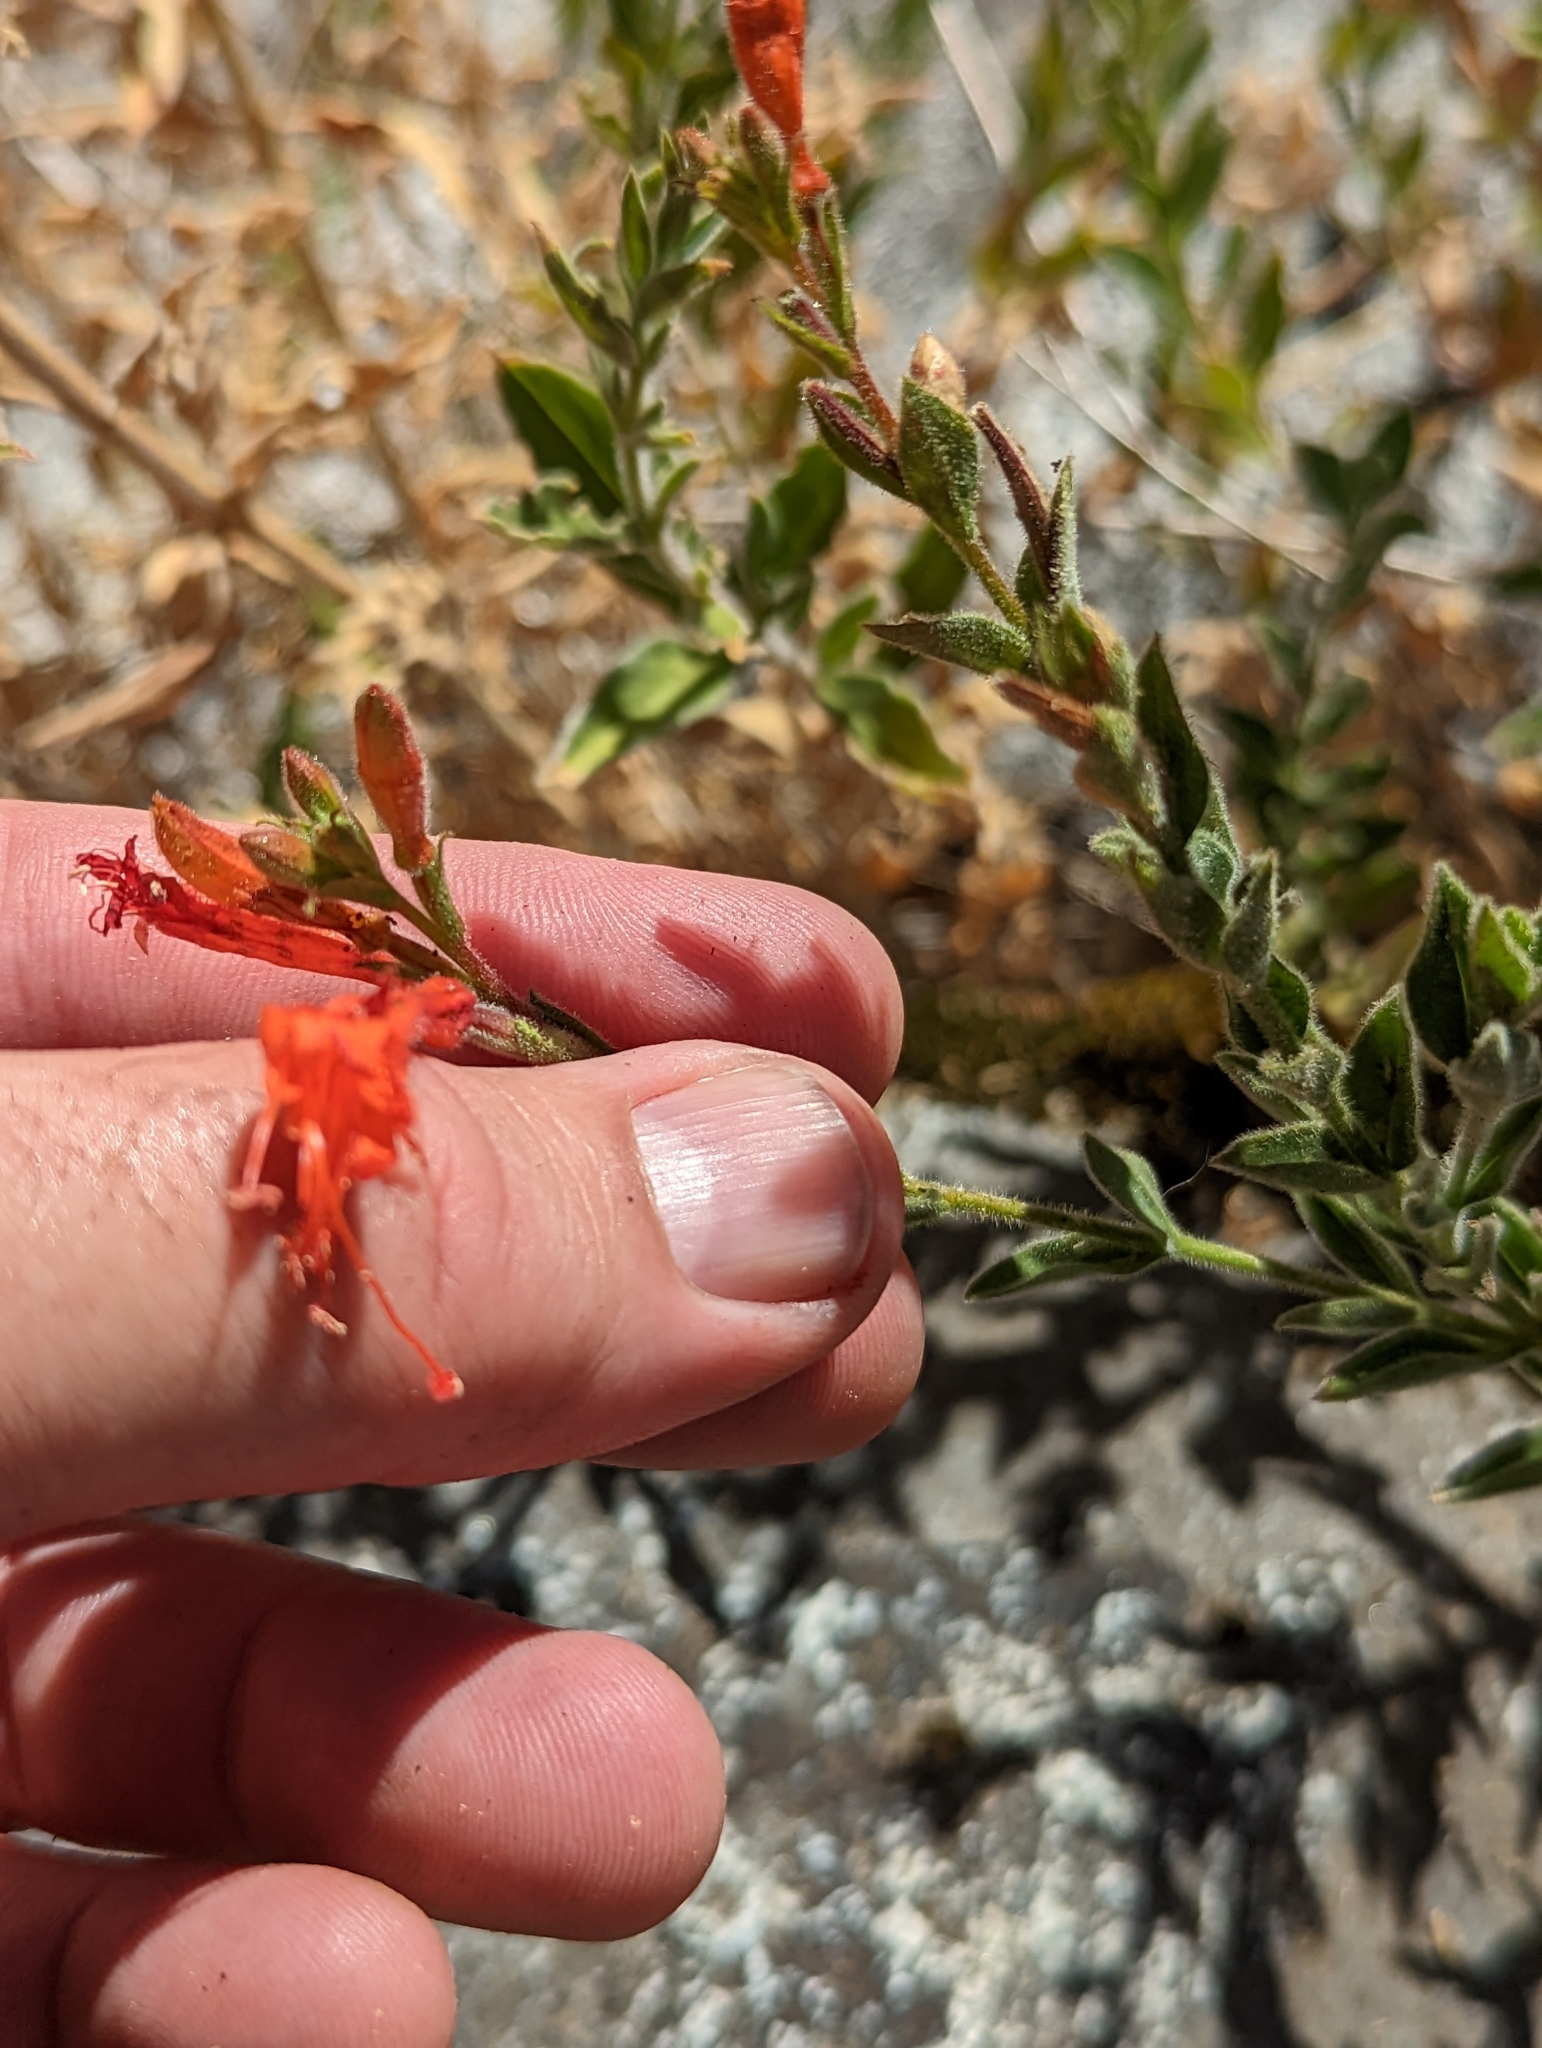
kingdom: Plantae
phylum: Tracheophyta
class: Magnoliopsida
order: Myrtales
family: Onagraceae
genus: Epilobium
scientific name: Epilobium canum
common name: California-fuchsia
